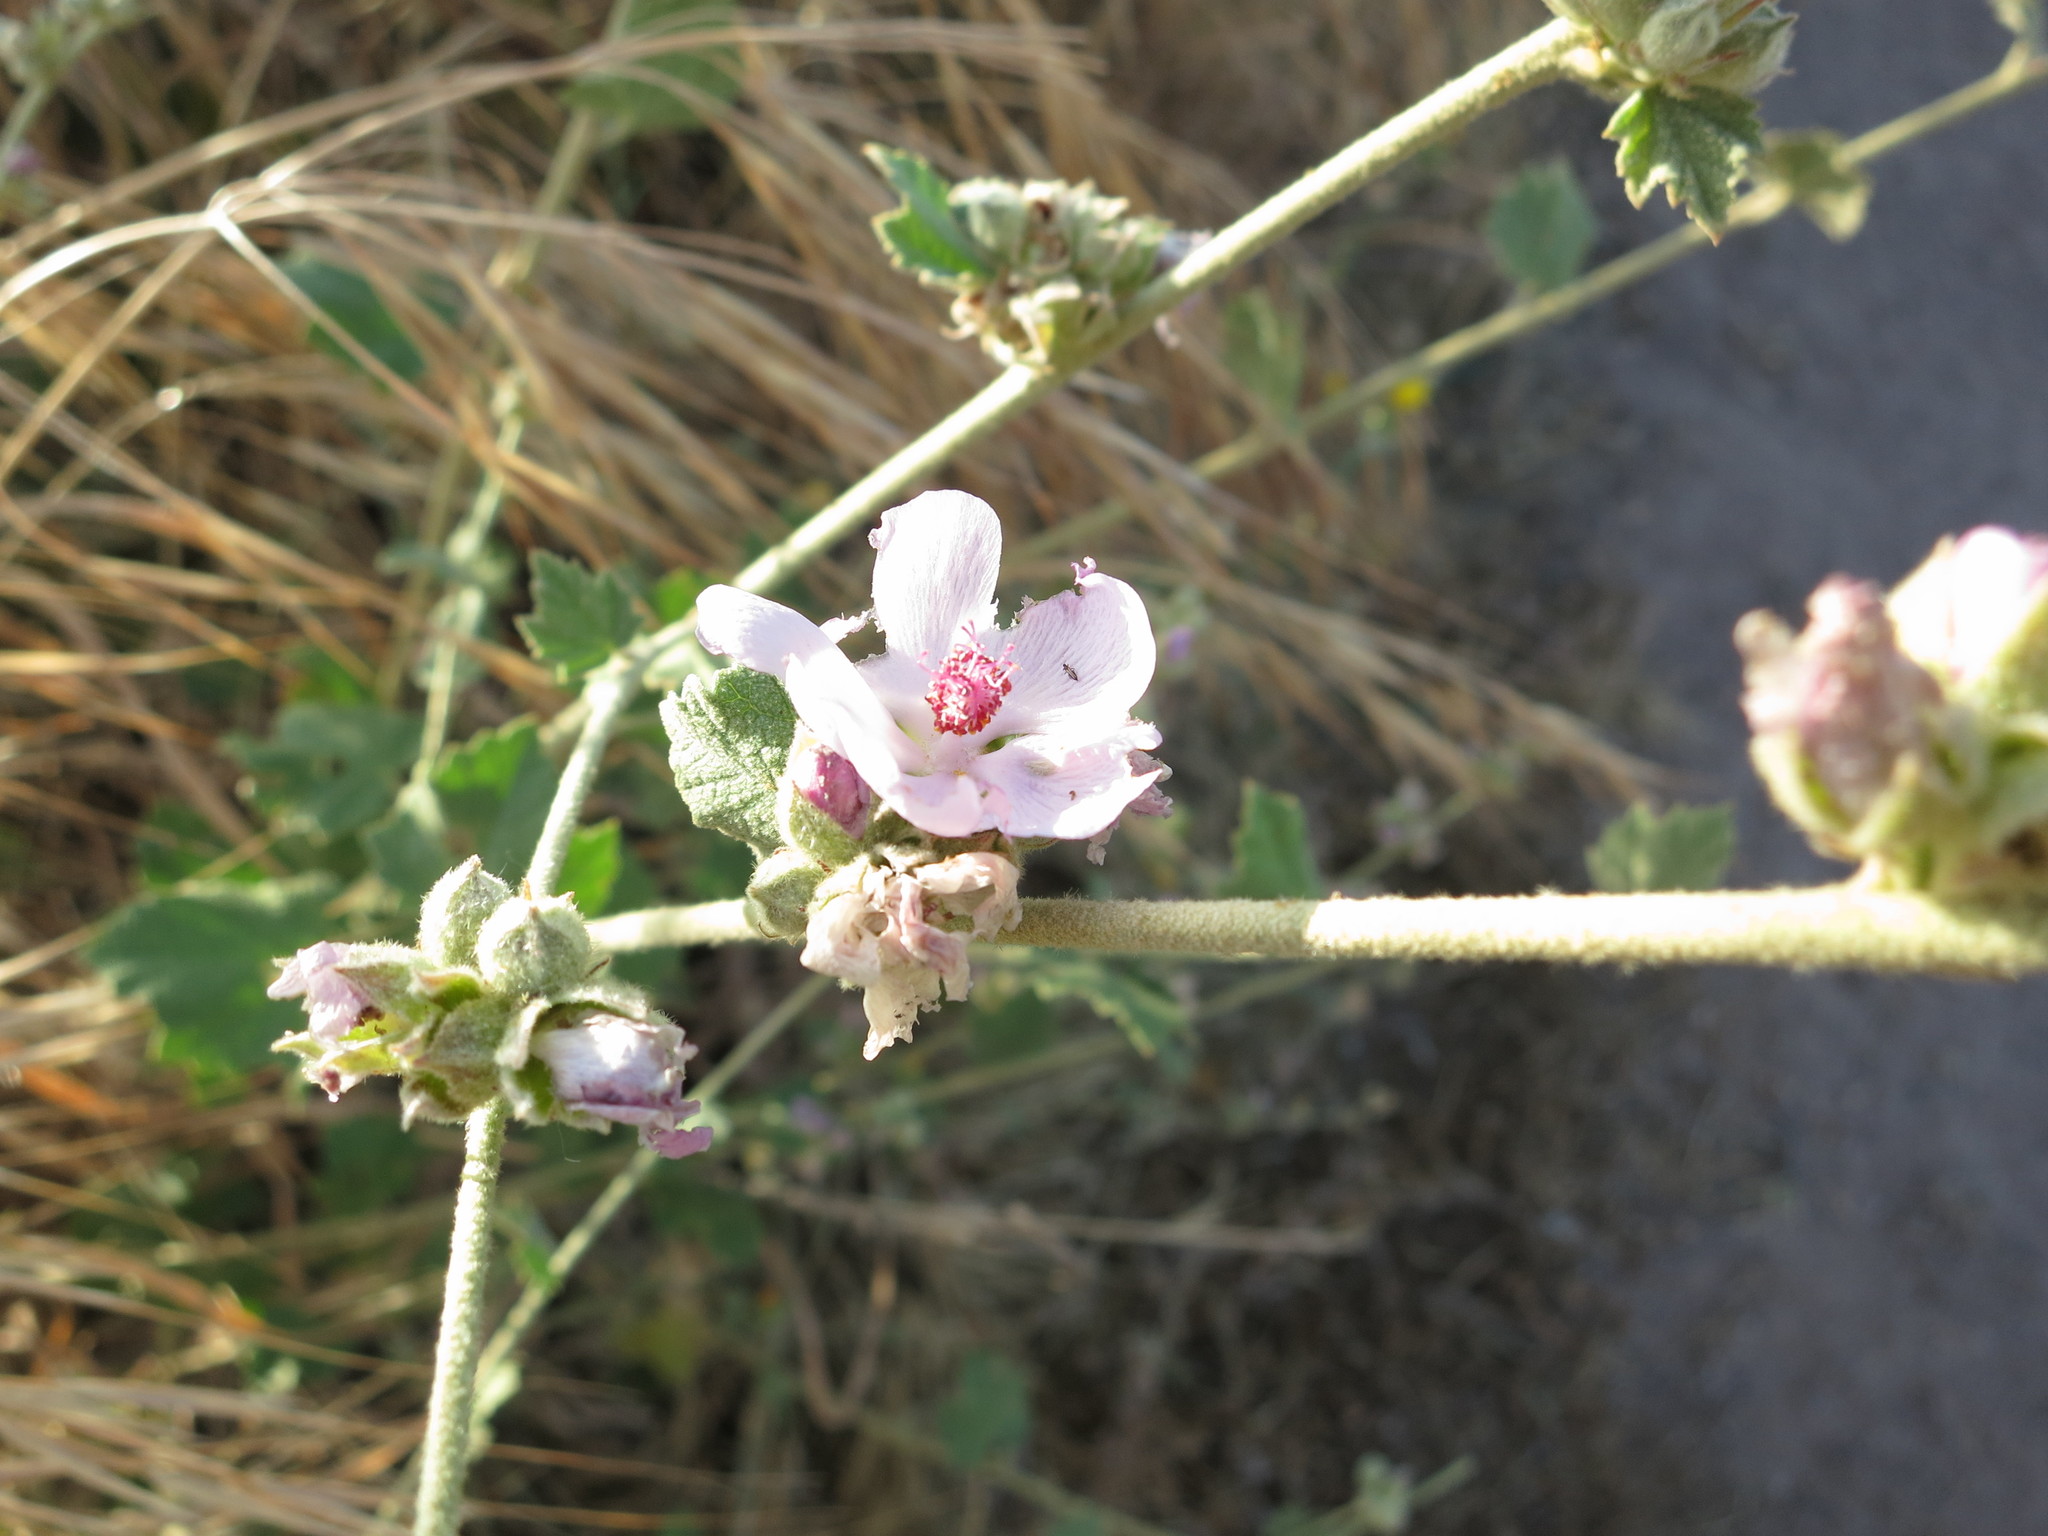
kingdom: Plantae
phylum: Tracheophyta
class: Magnoliopsida
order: Malvales
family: Malvaceae
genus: Malacothamnus
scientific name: Malacothamnus fasciculatus
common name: Sant cruz island bush-mallow
